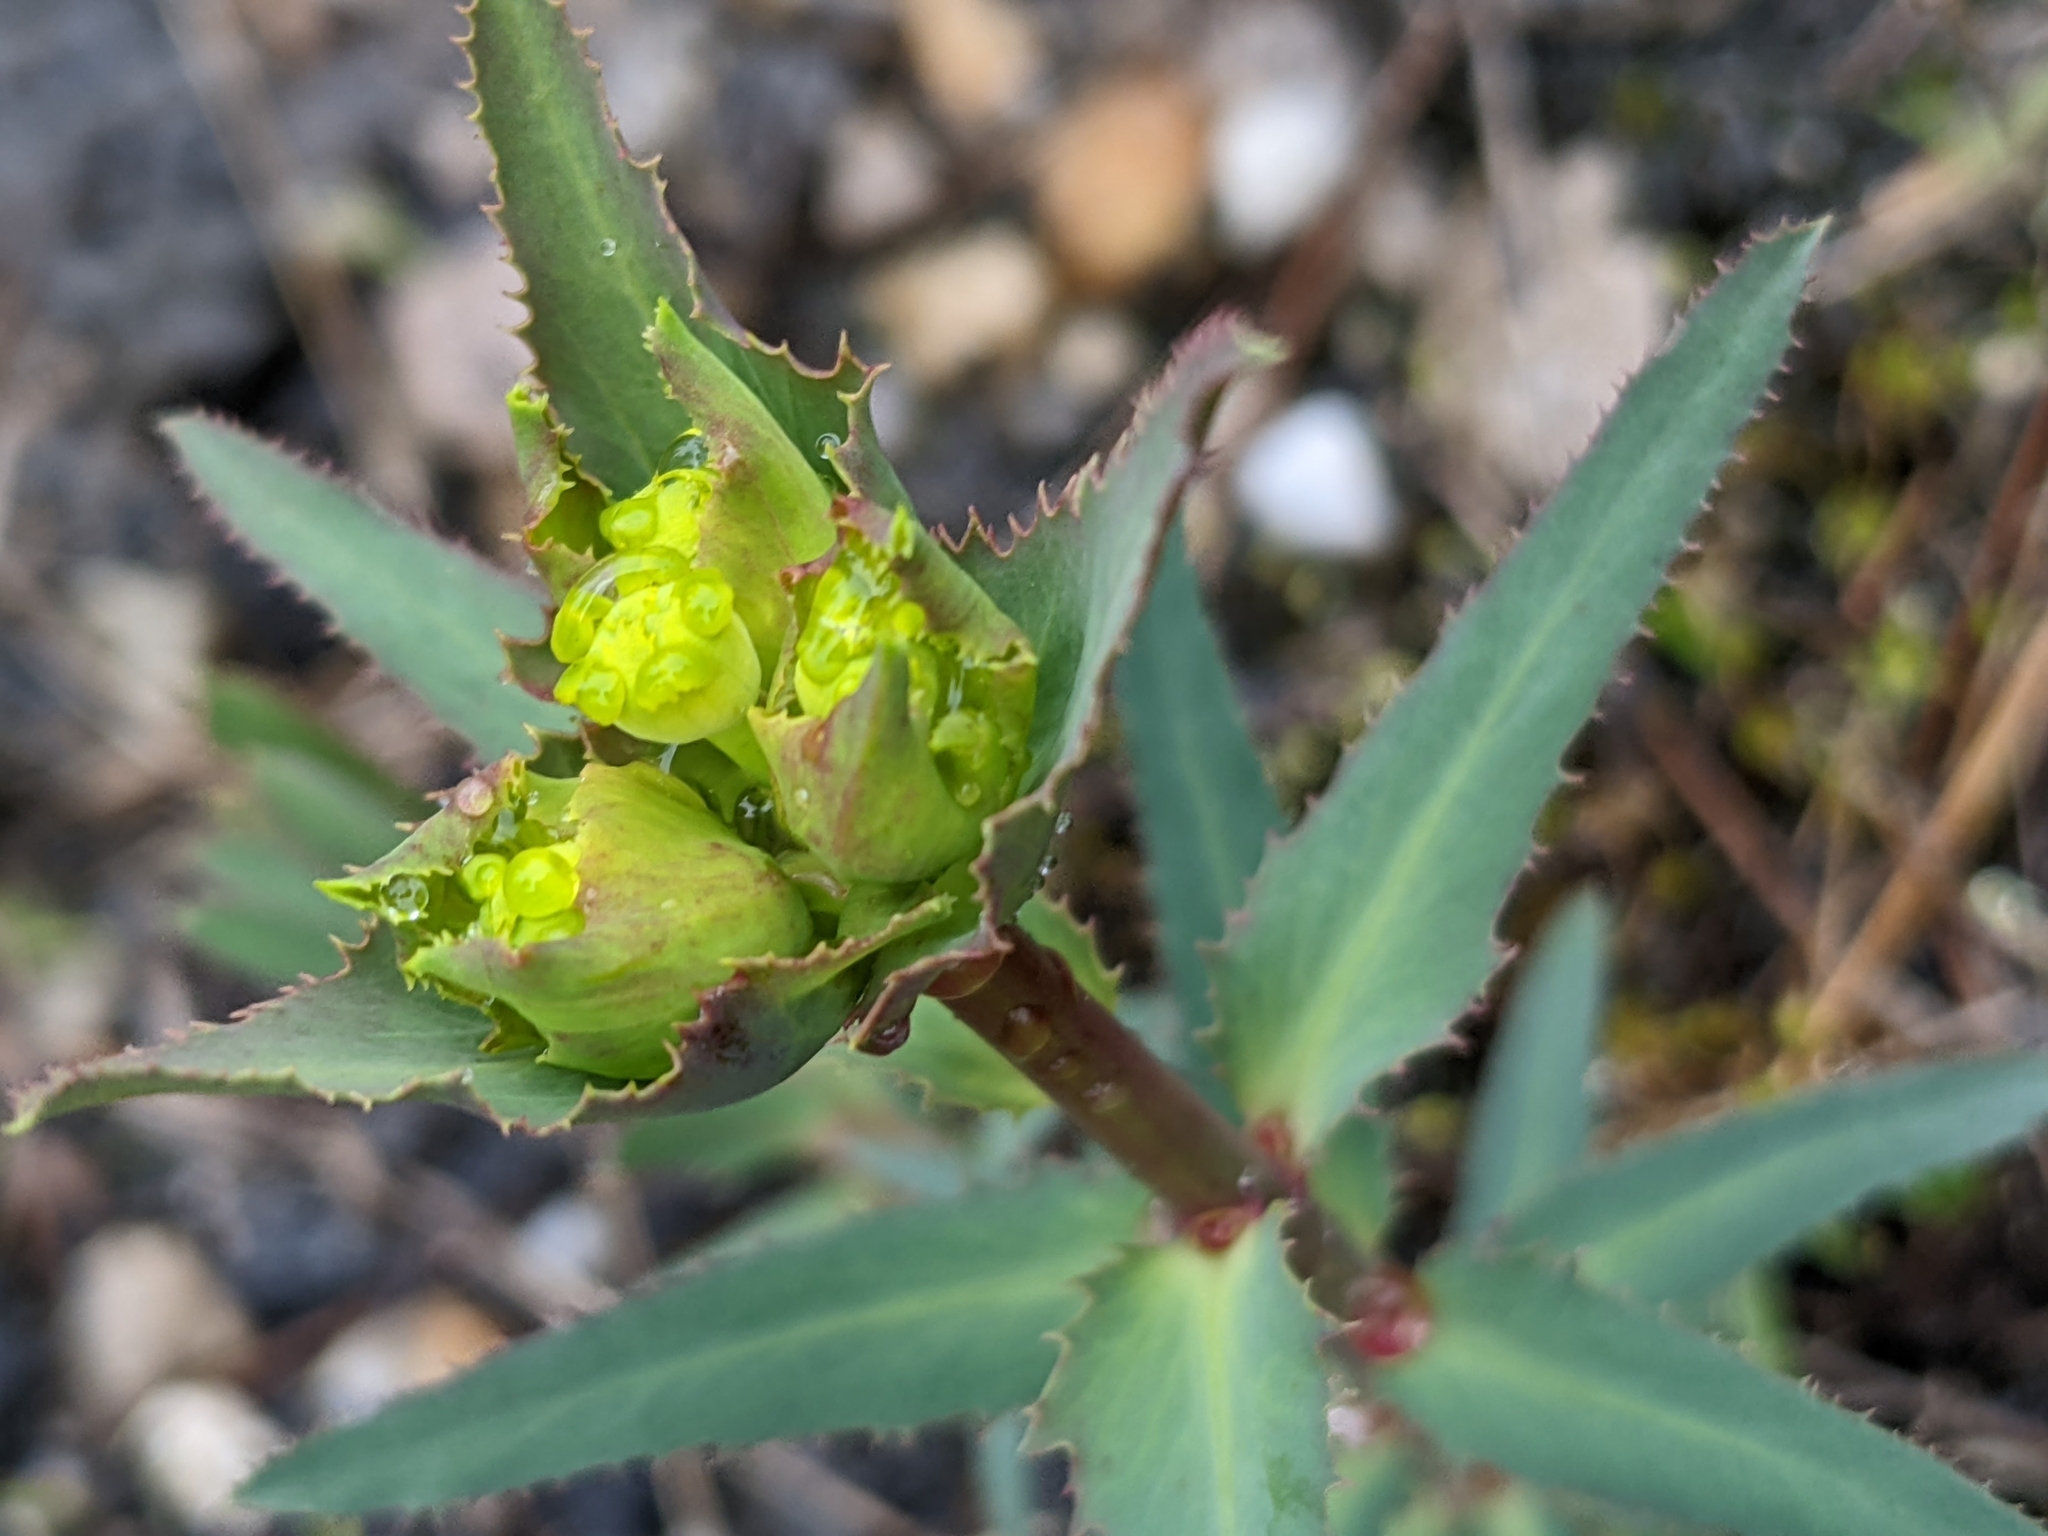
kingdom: Plantae
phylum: Tracheophyta
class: Magnoliopsida
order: Malpighiales
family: Euphorbiaceae
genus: Euphorbia
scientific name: Euphorbia serrata
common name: Serrate spurge
